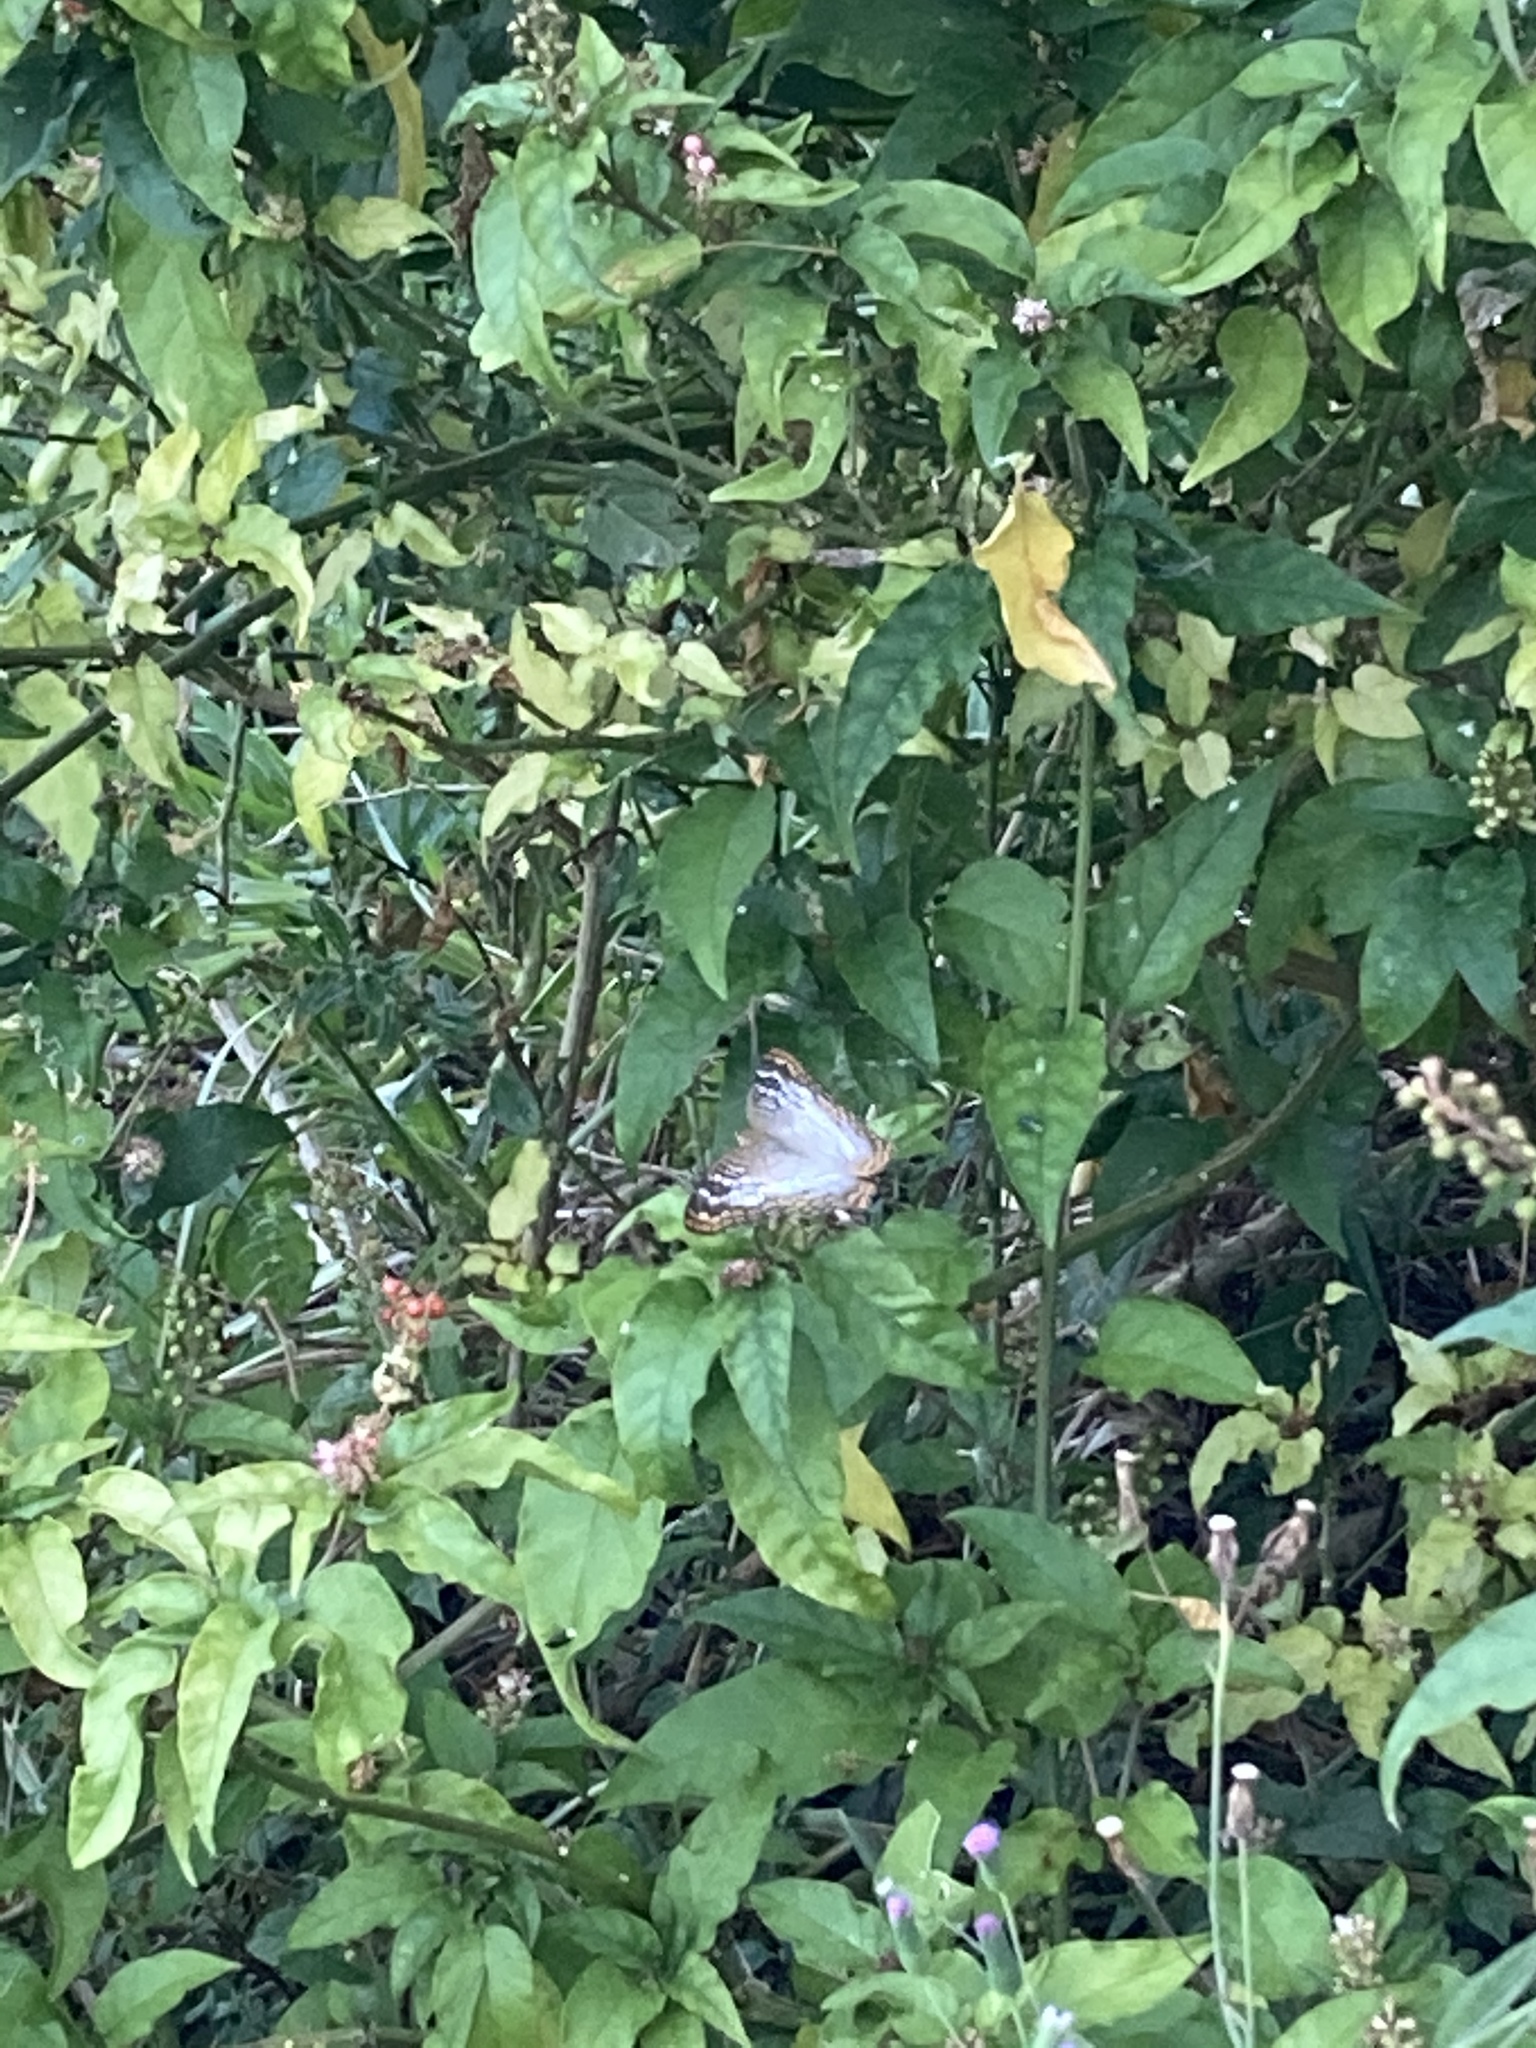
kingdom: Animalia
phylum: Arthropoda
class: Insecta
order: Lepidoptera
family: Nymphalidae
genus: Anartia
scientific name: Anartia jatrophae
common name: White peacock
